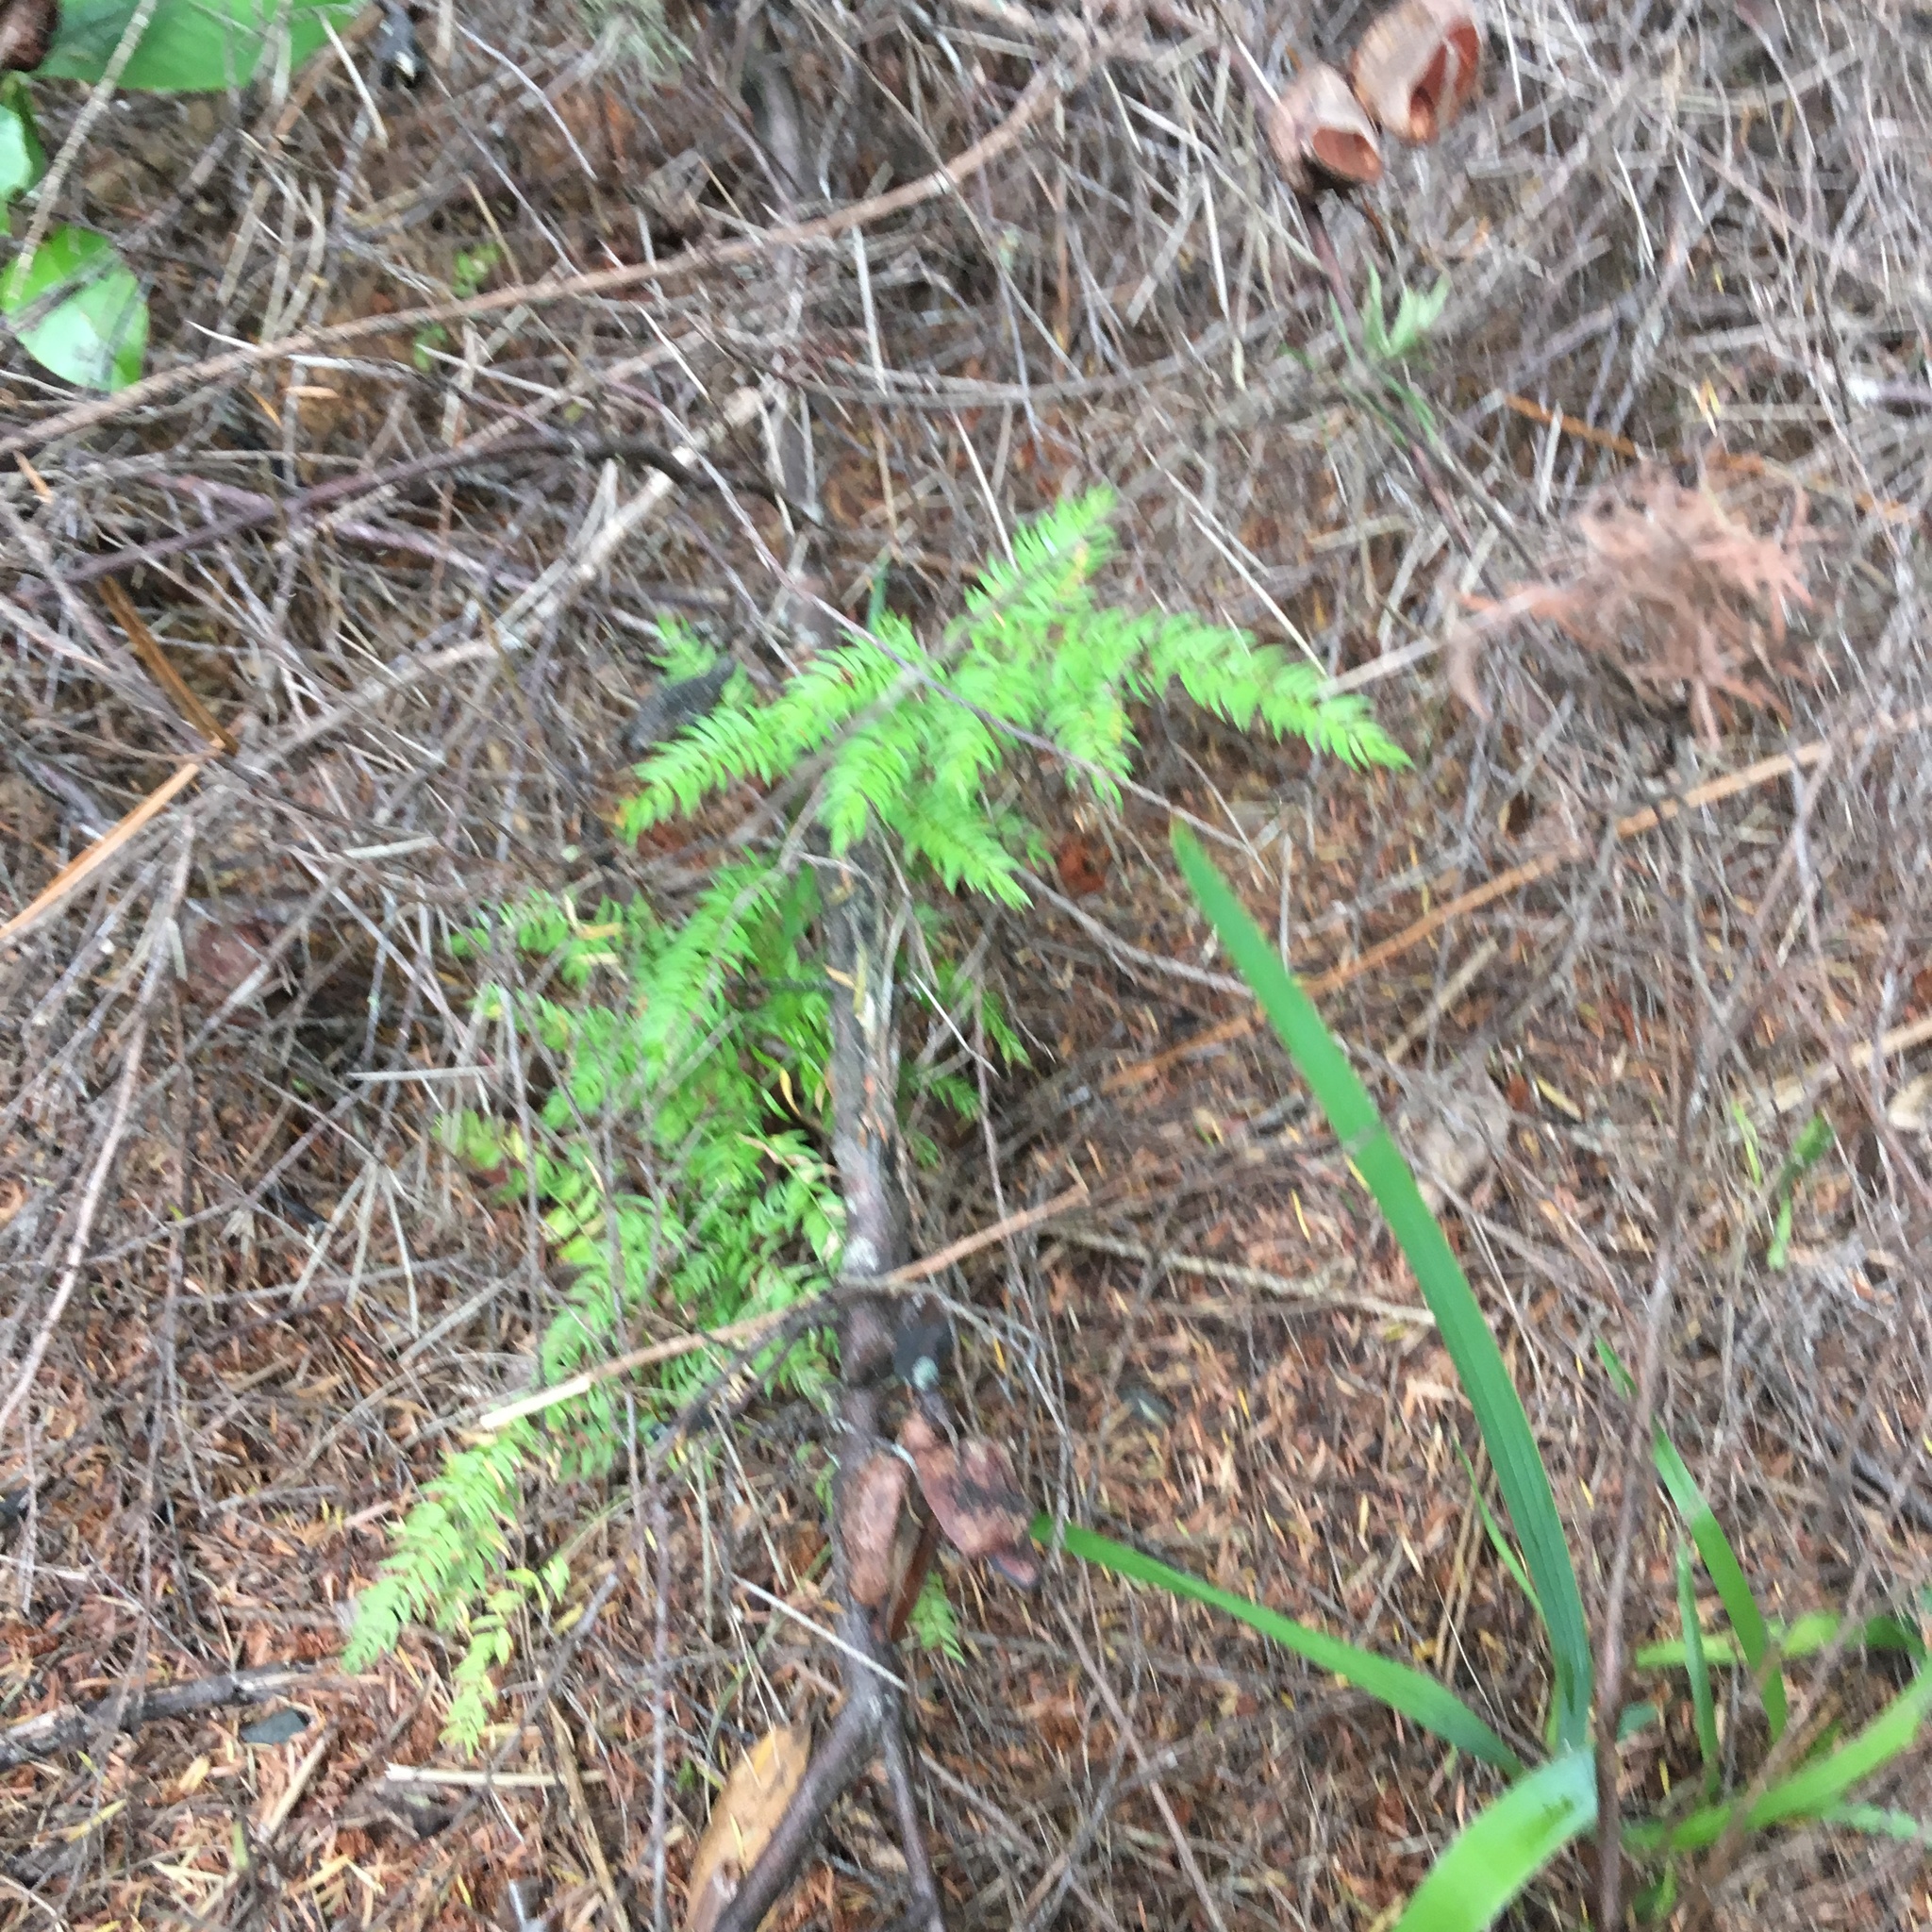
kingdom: Plantae
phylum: Tracheophyta
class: Liliopsida
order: Asparagales
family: Asparagaceae
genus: Asparagus
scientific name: Asparagus scandens
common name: Asparagus-fern
